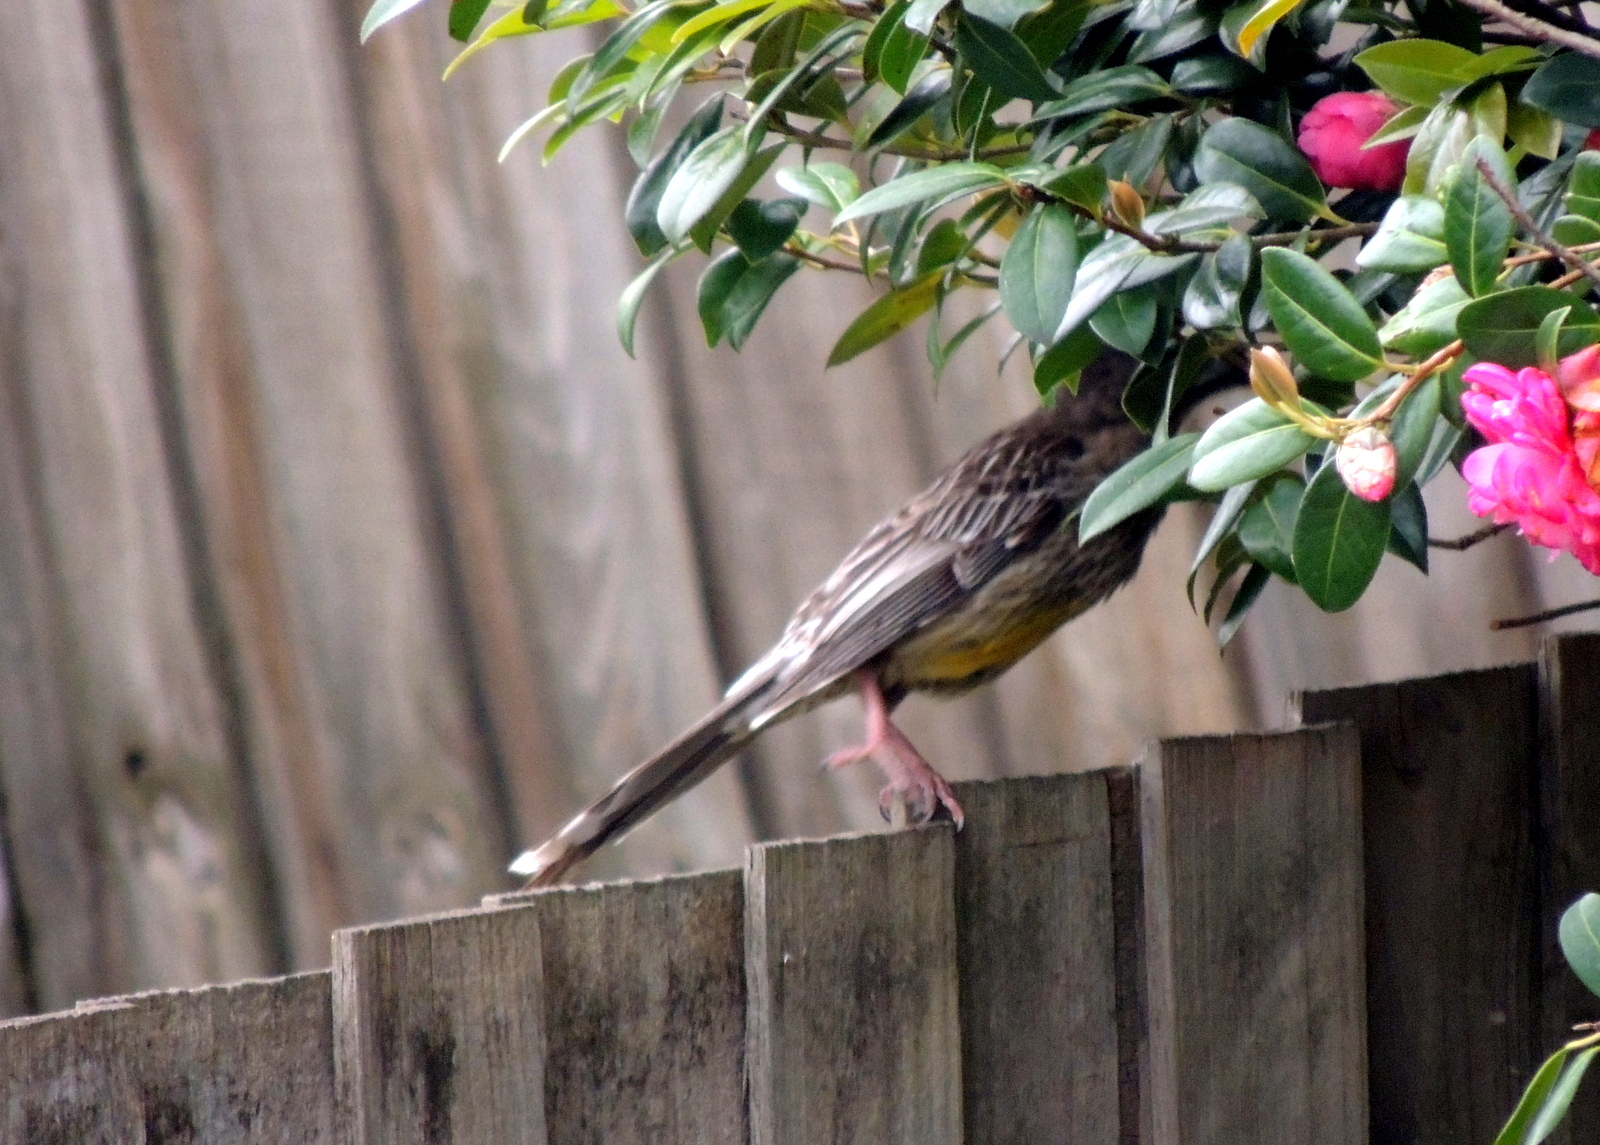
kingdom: Animalia
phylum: Chordata
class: Aves
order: Passeriformes
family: Meliphagidae
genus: Anthochaera
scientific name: Anthochaera carunculata
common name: Red wattlebird
